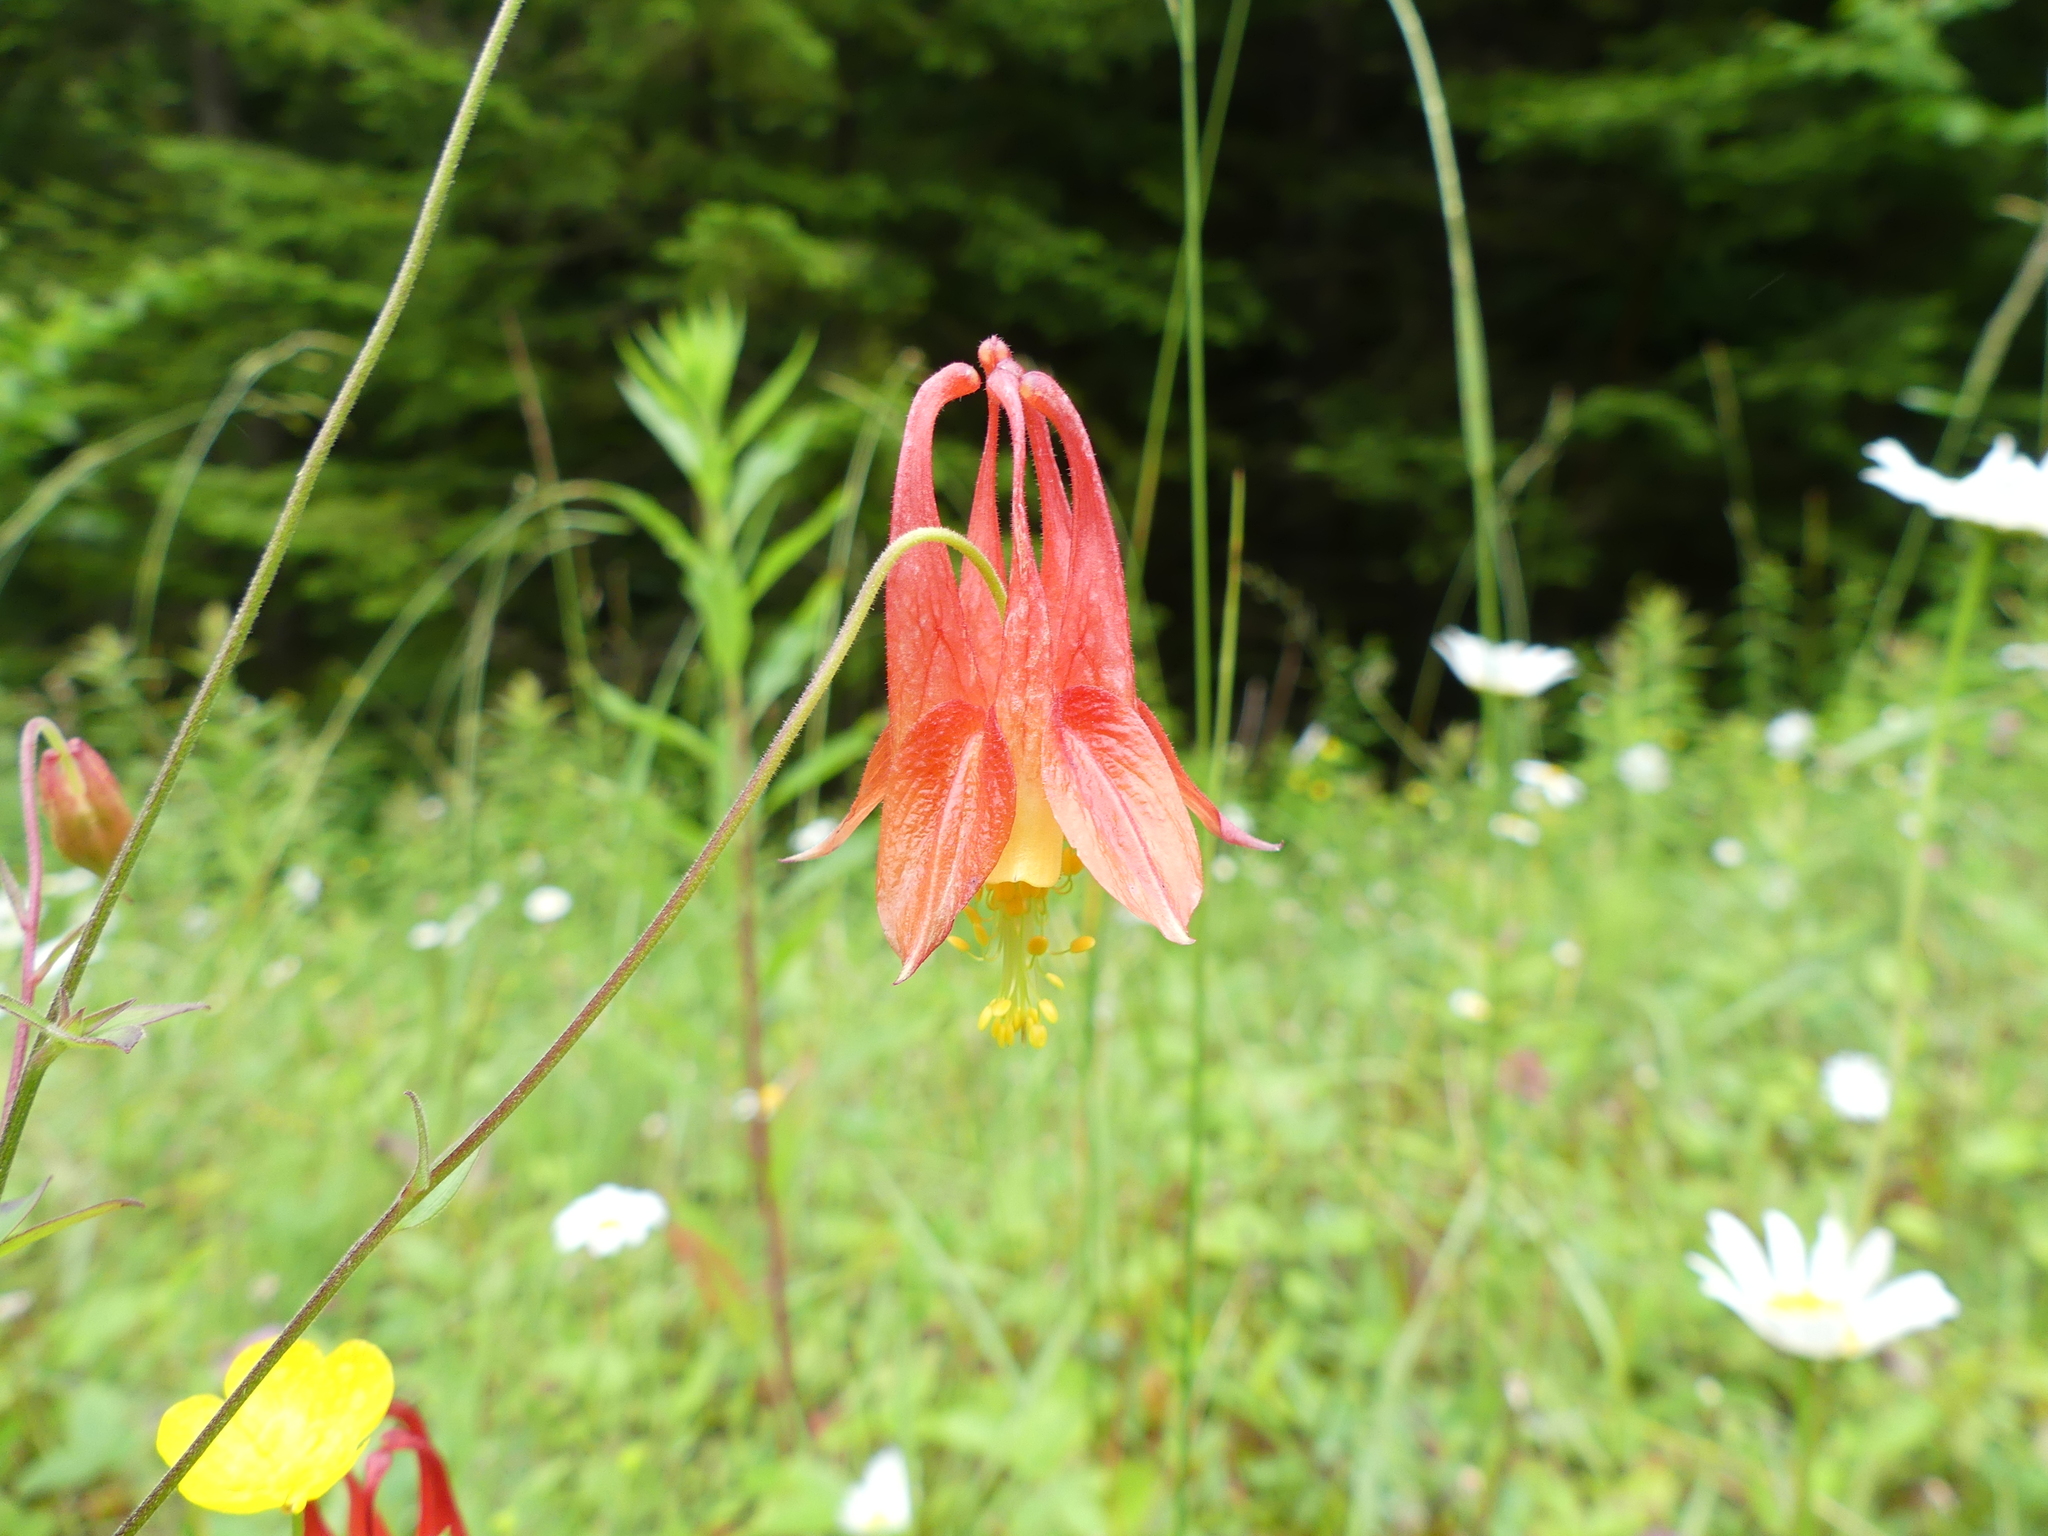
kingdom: Plantae
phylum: Tracheophyta
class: Magnoliopsida
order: Ranunculales
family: Ranunculaceae
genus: Aquilegia
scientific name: Aquilegia canadensis
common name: American columbine
